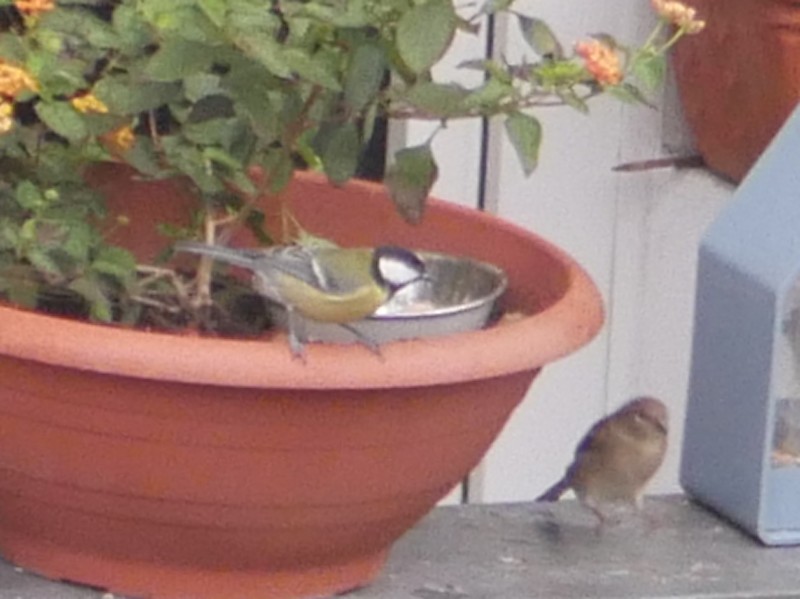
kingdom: Animalia
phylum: Chordata
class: Aves
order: Passeriformes
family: Paridae
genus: Parus
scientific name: Parus major
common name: Great tit
